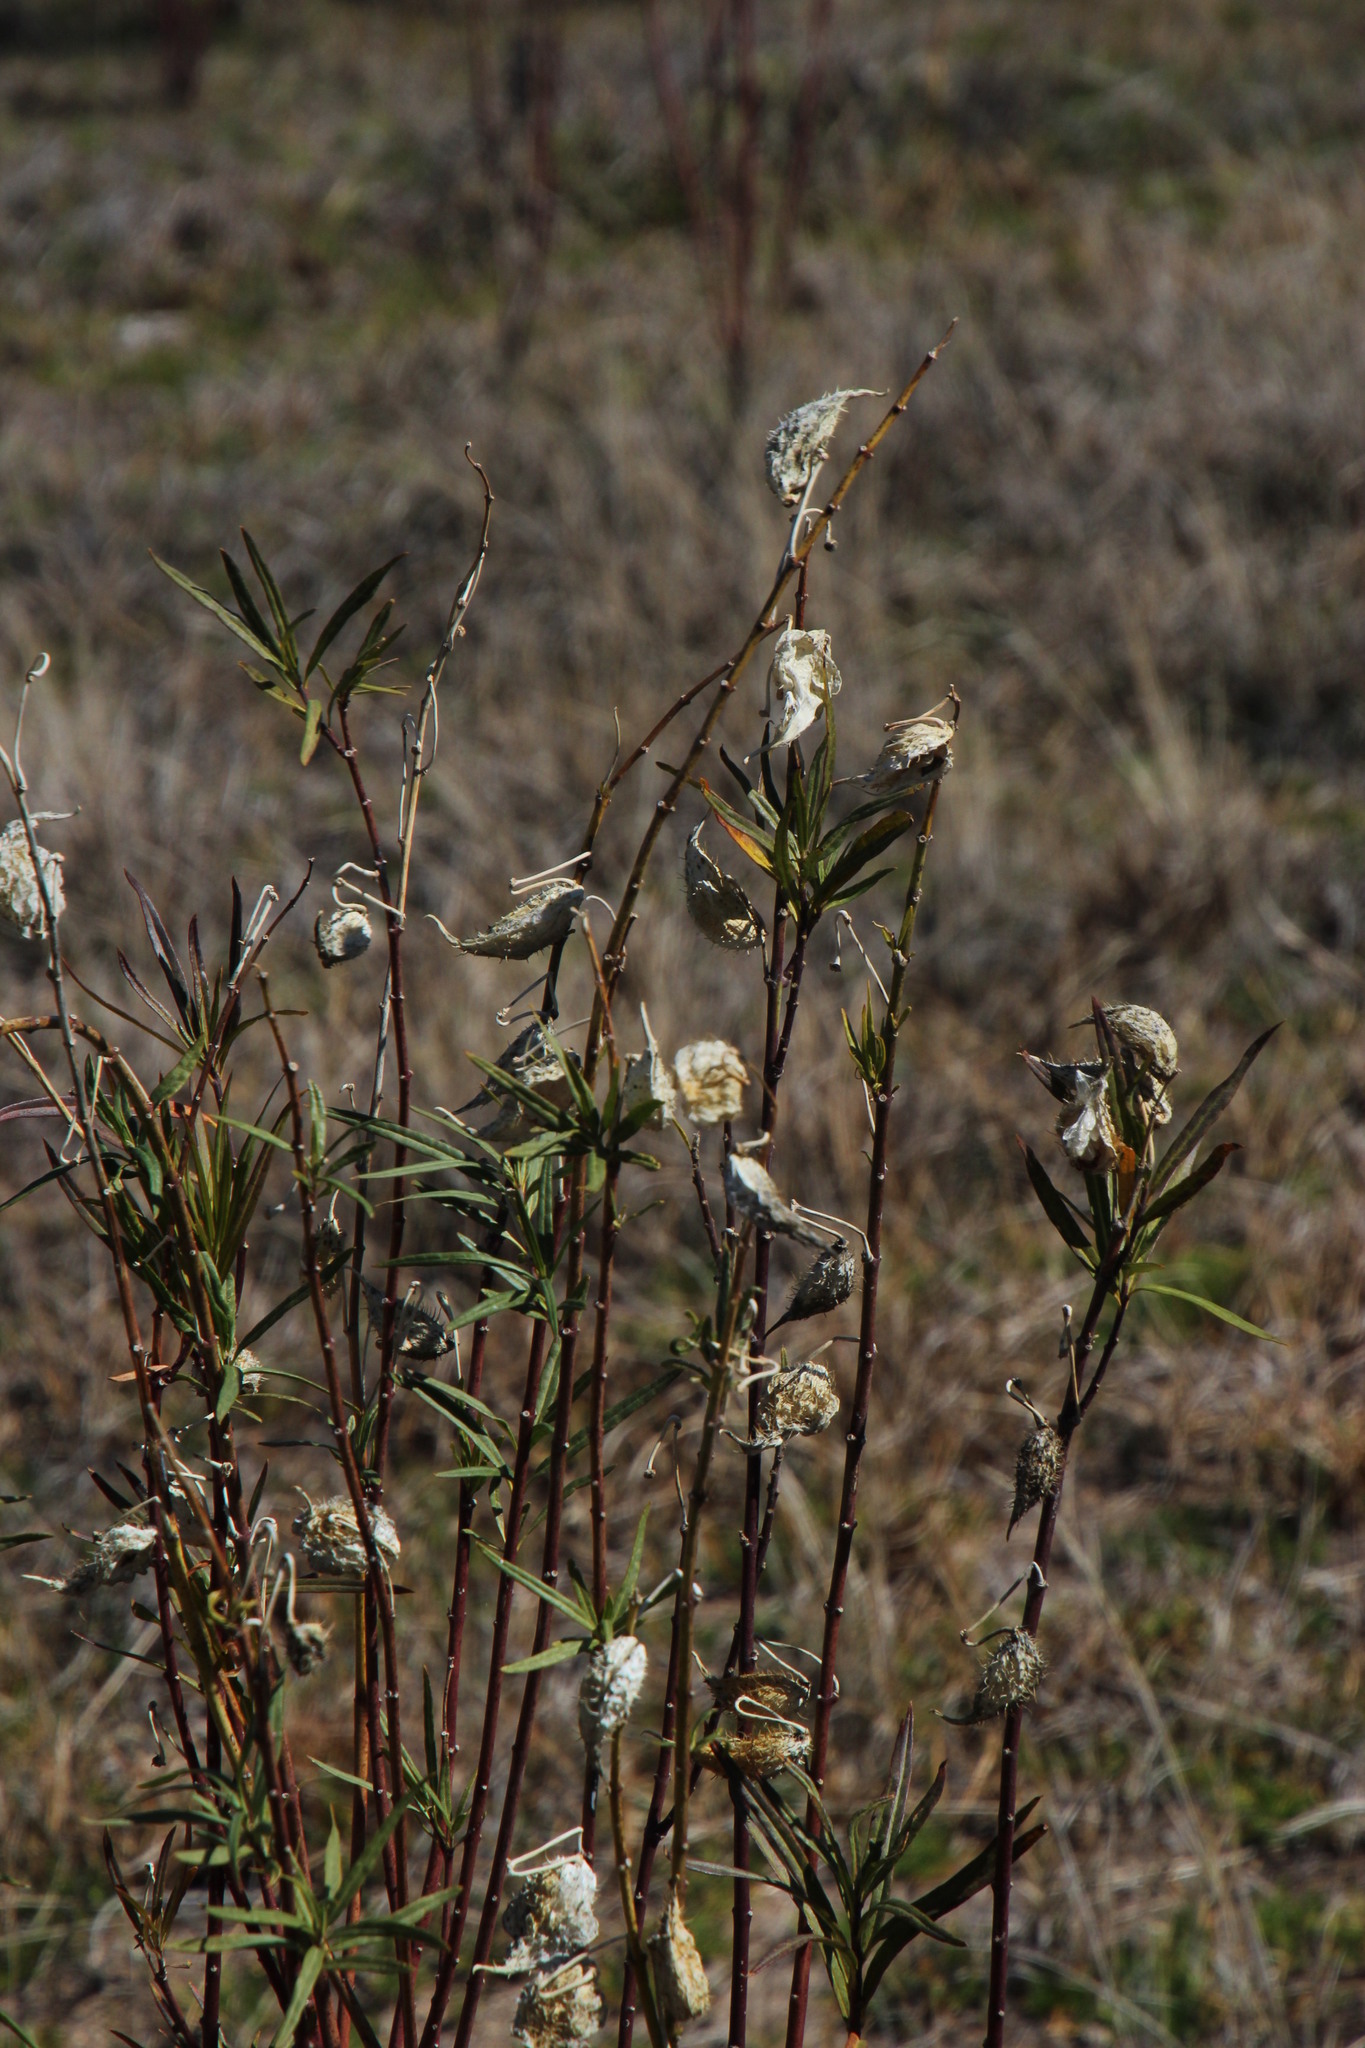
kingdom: Plantae
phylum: Tracheophyta
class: Magnoliopsida
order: Gentianales
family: Apocynaceae
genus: Gomphocarpus
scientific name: Gomphocarpus fruticosus
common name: Milkweed
